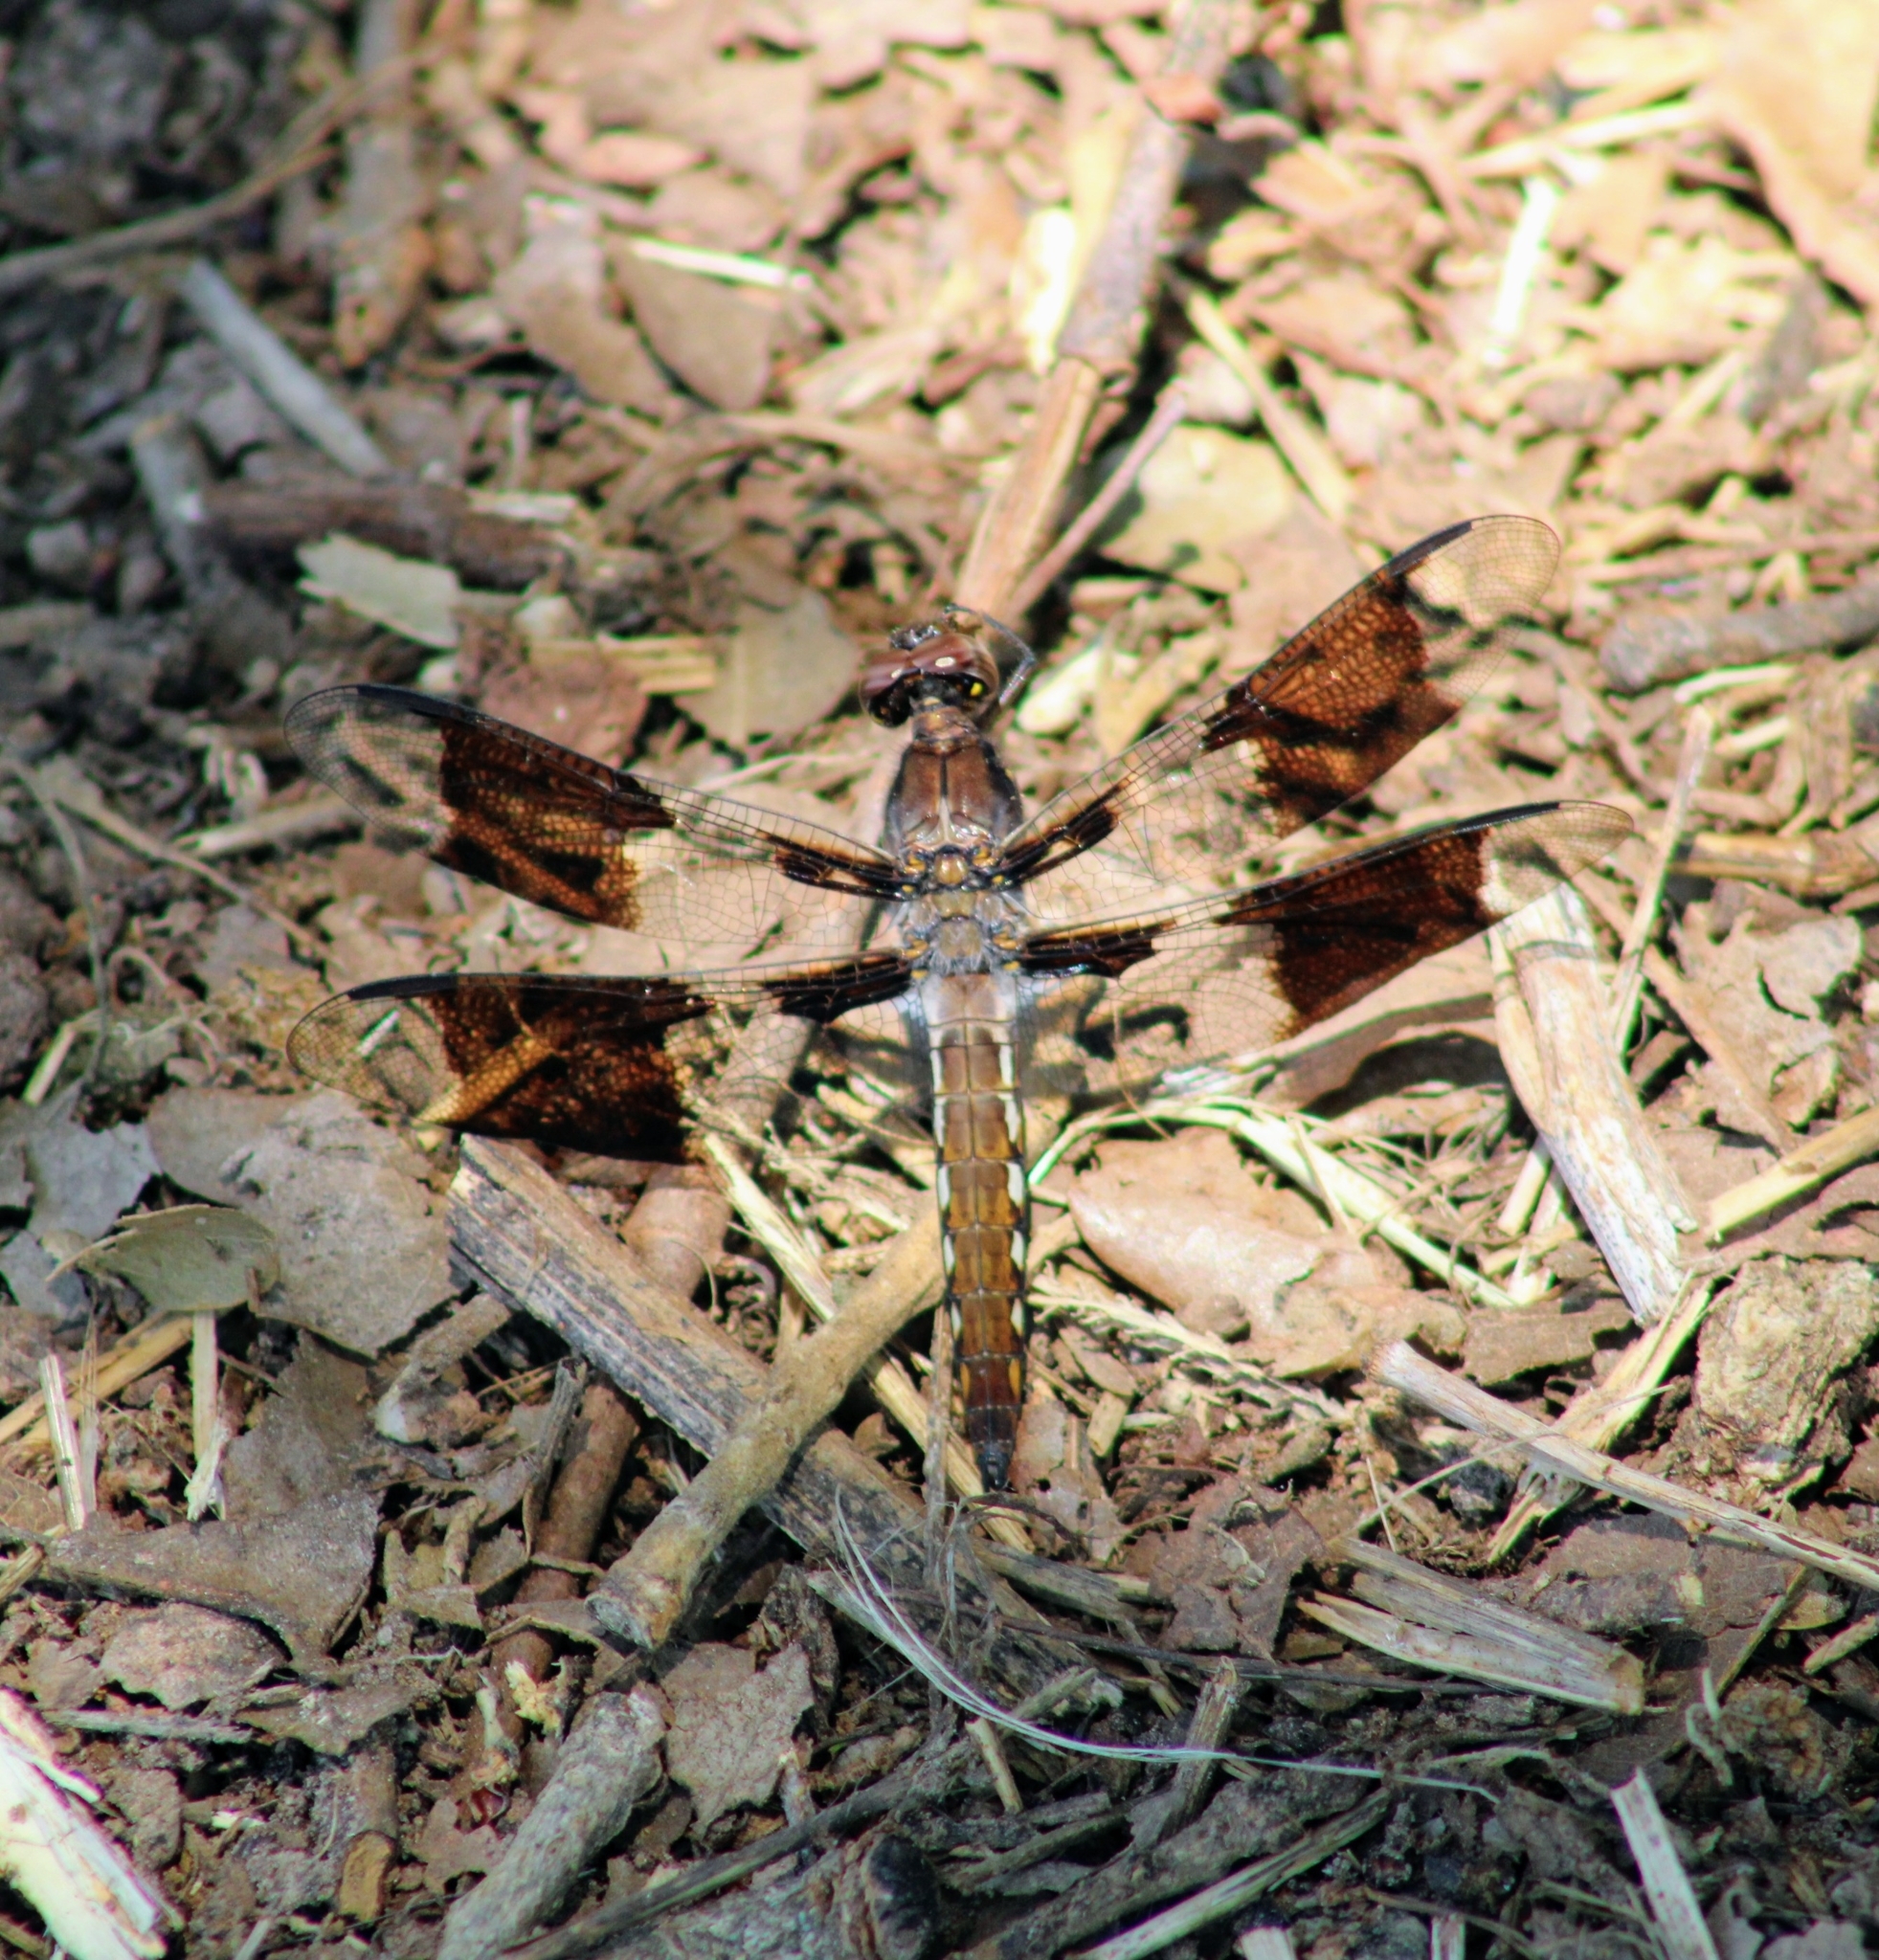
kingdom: Animalia
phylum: Arthropoda
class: Insecta
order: Odonata
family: Libellulidae
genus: Plathemis
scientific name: Plathemis lydia
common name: Common whitetail
